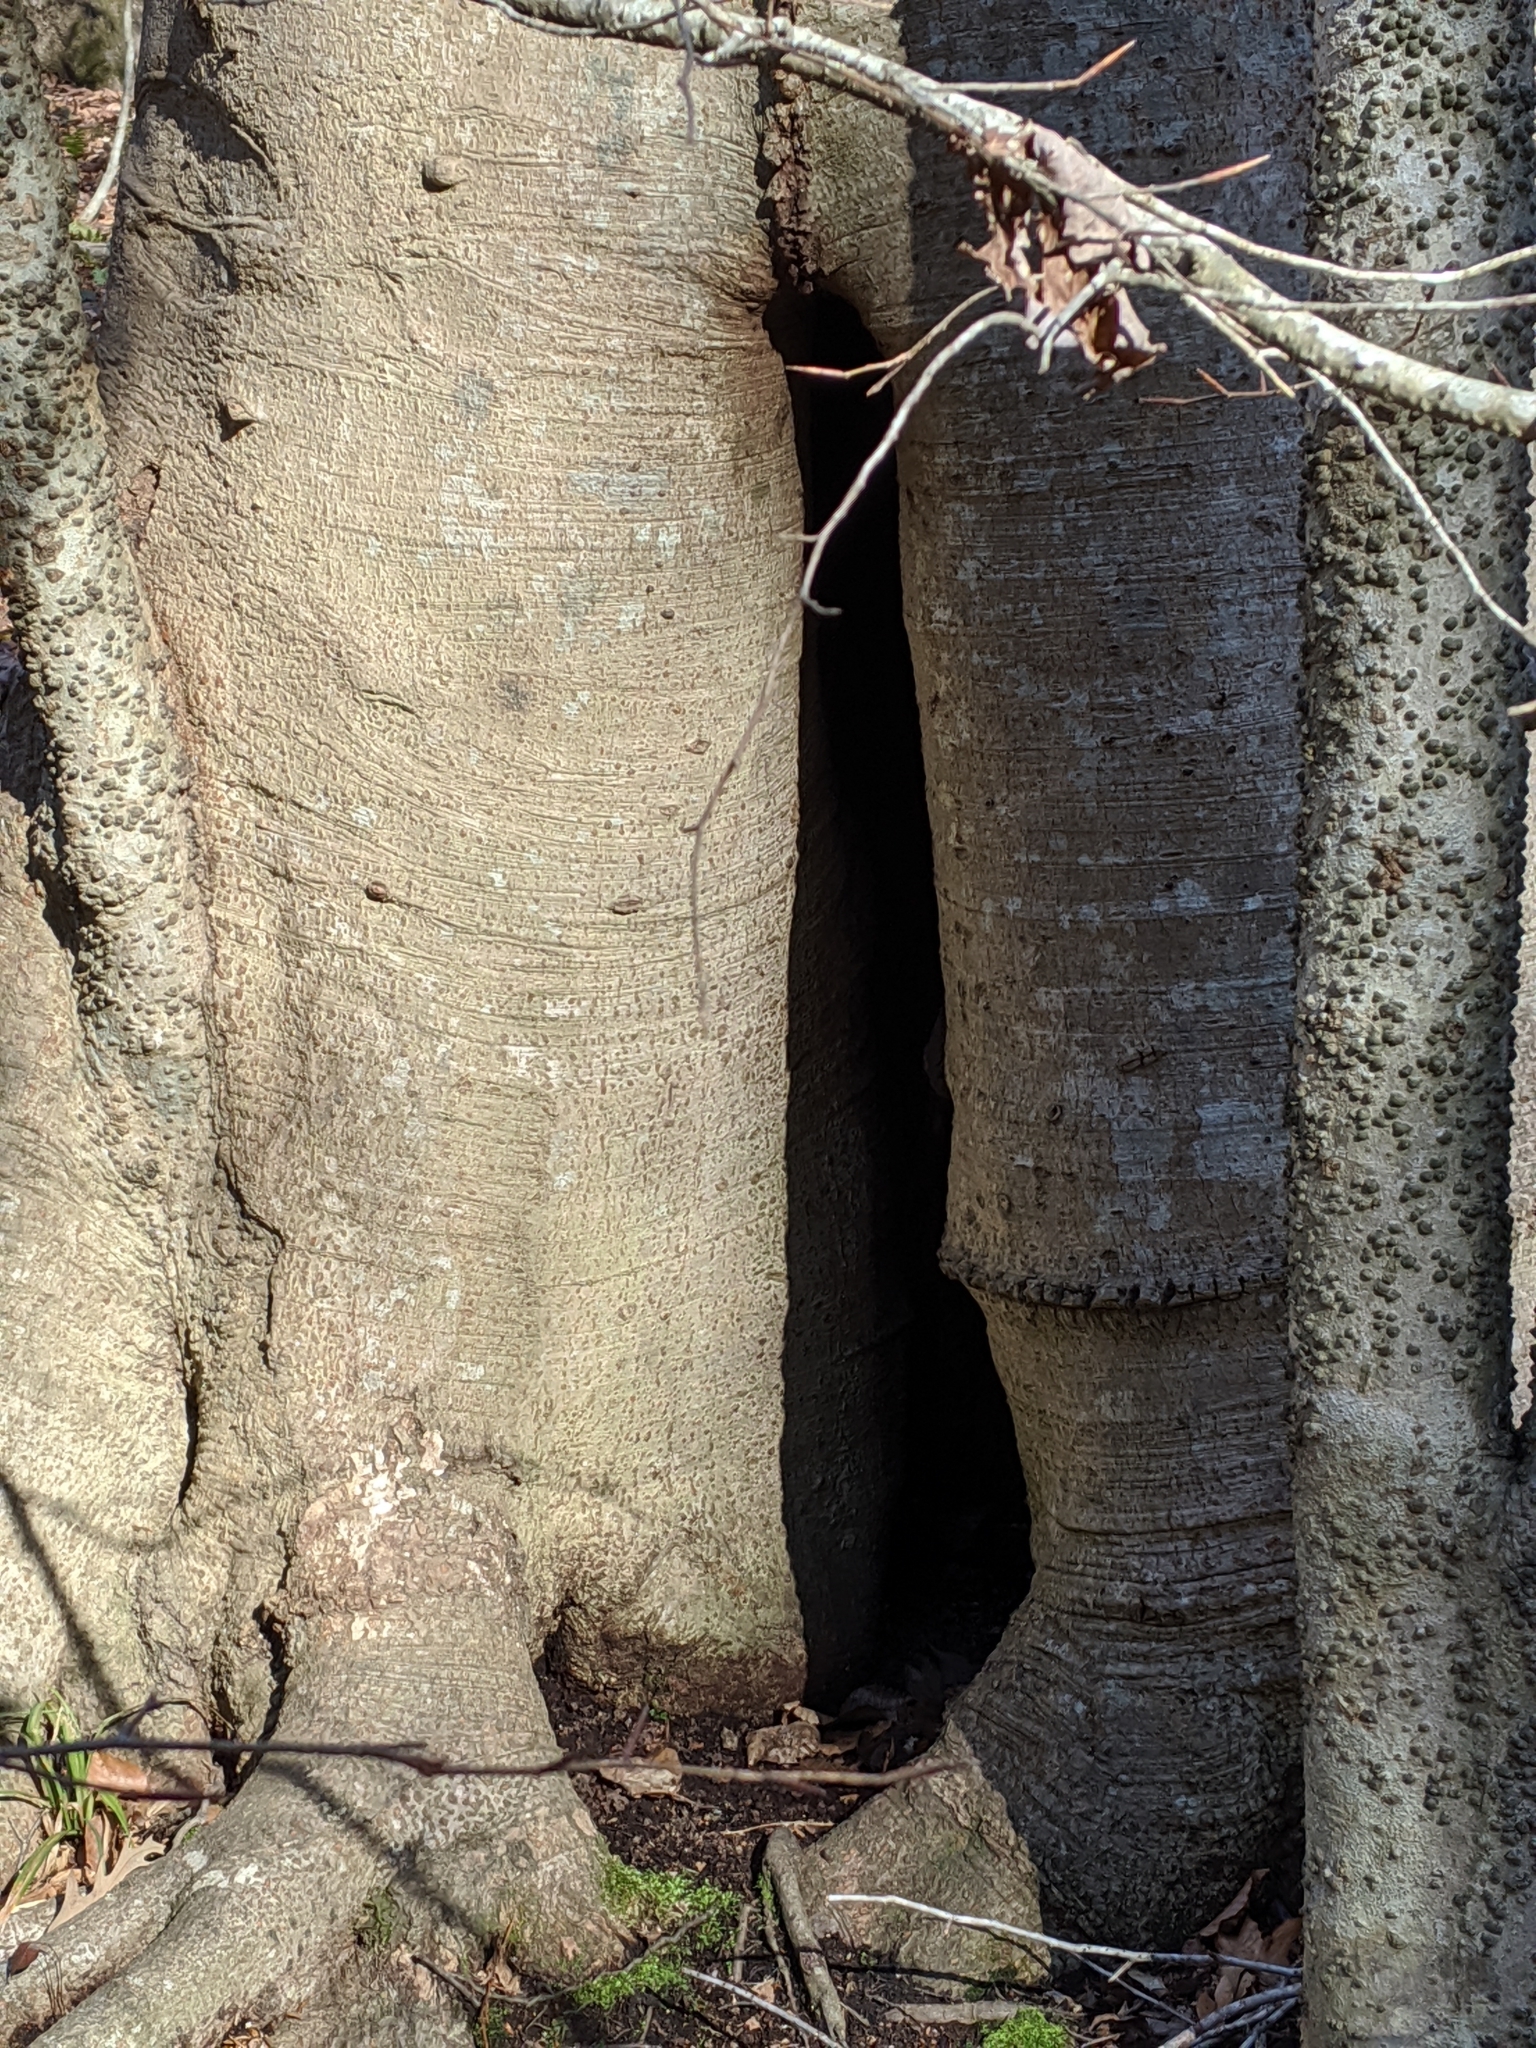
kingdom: Plantae
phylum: Tracheophyta
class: Magnoliopsida
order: Fagales
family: Fagaceae
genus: Fagus
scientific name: Fagus grandifolia
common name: American beech
